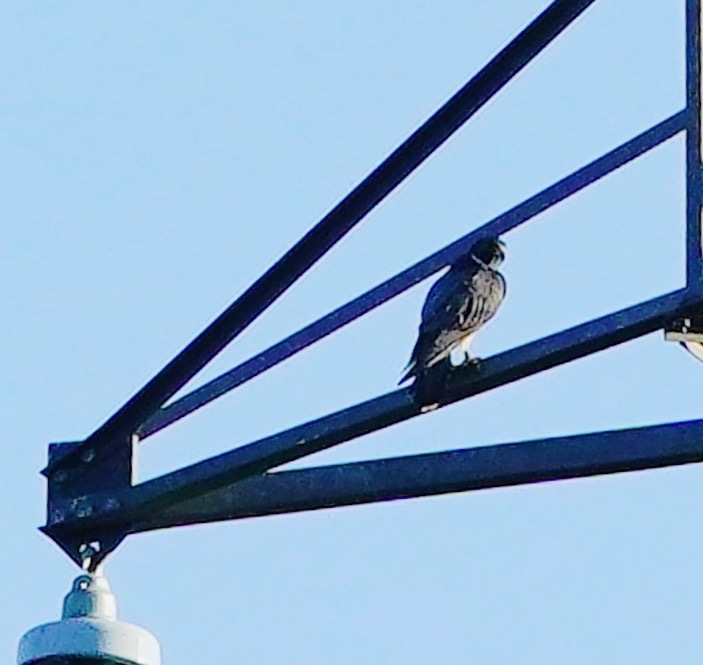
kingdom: Animalia
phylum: Chordata
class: Aves
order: Falconiformes
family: Falconidae
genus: Falco
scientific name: Falco peregrinus
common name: Peregrine falcon
